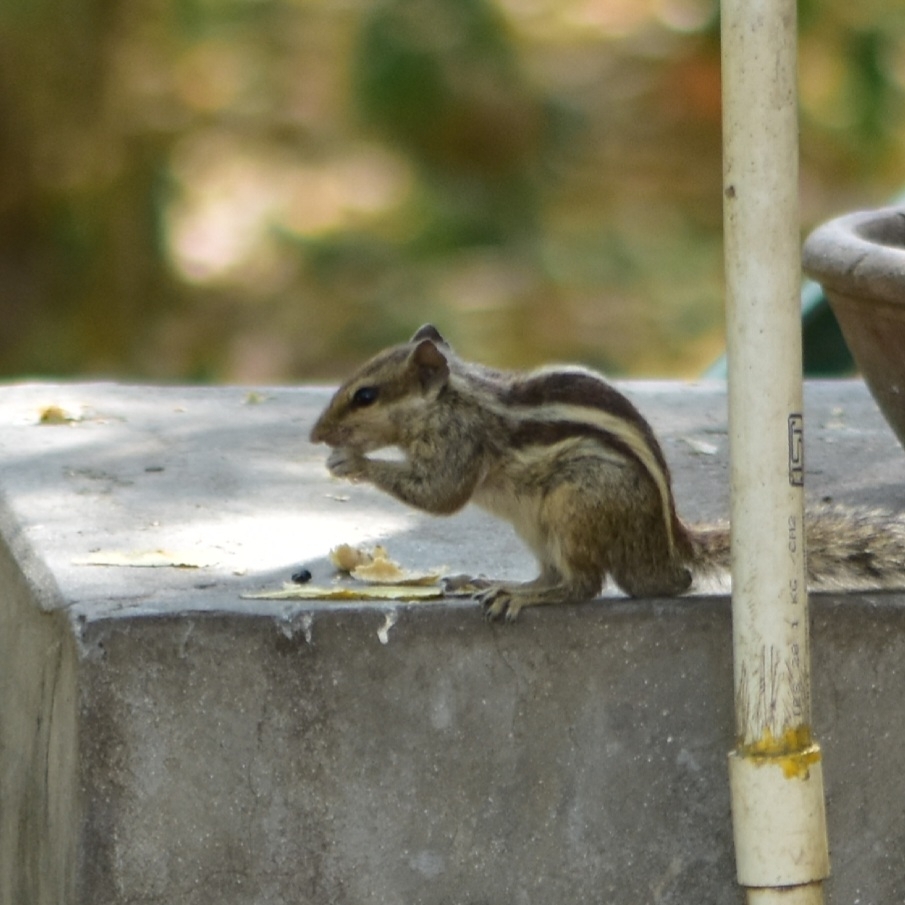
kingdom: Animalia
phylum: Chordata
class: Mammalia
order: Rodentia
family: Sciuridae
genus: Funambulus
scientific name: Funambulus pennantii
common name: Northern palm squirrel
